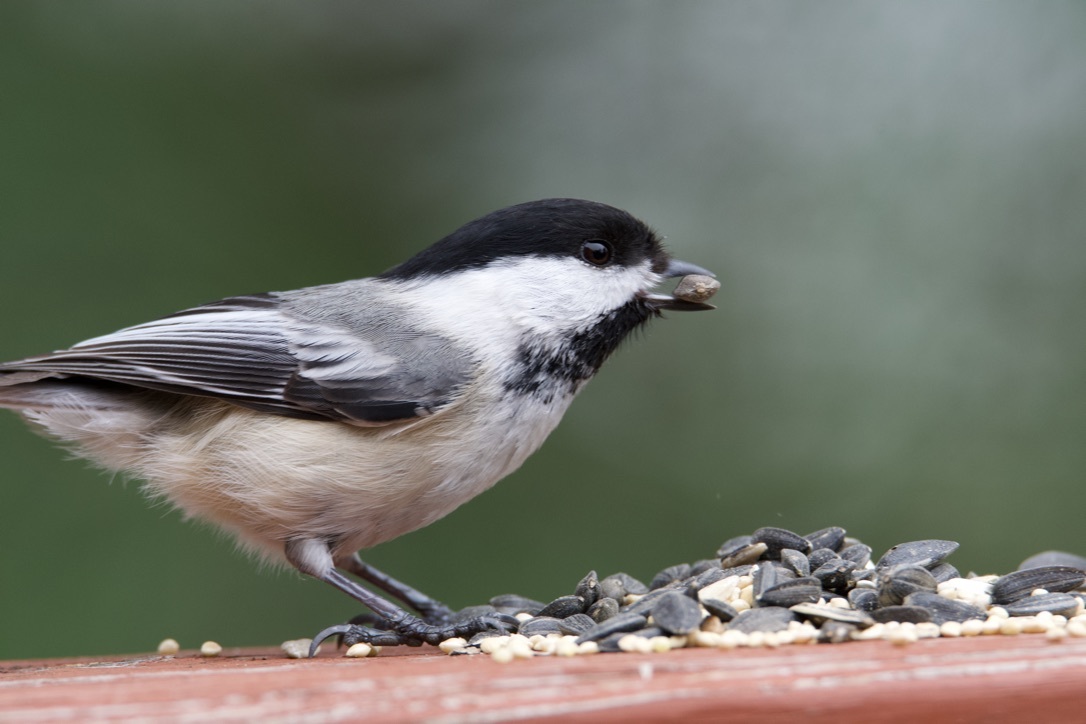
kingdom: Animalia
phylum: Chordata
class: Aves
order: Passeriformes
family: Paridae
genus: Poecile
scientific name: Poecile atricapillus
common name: Black-capped chickadee
